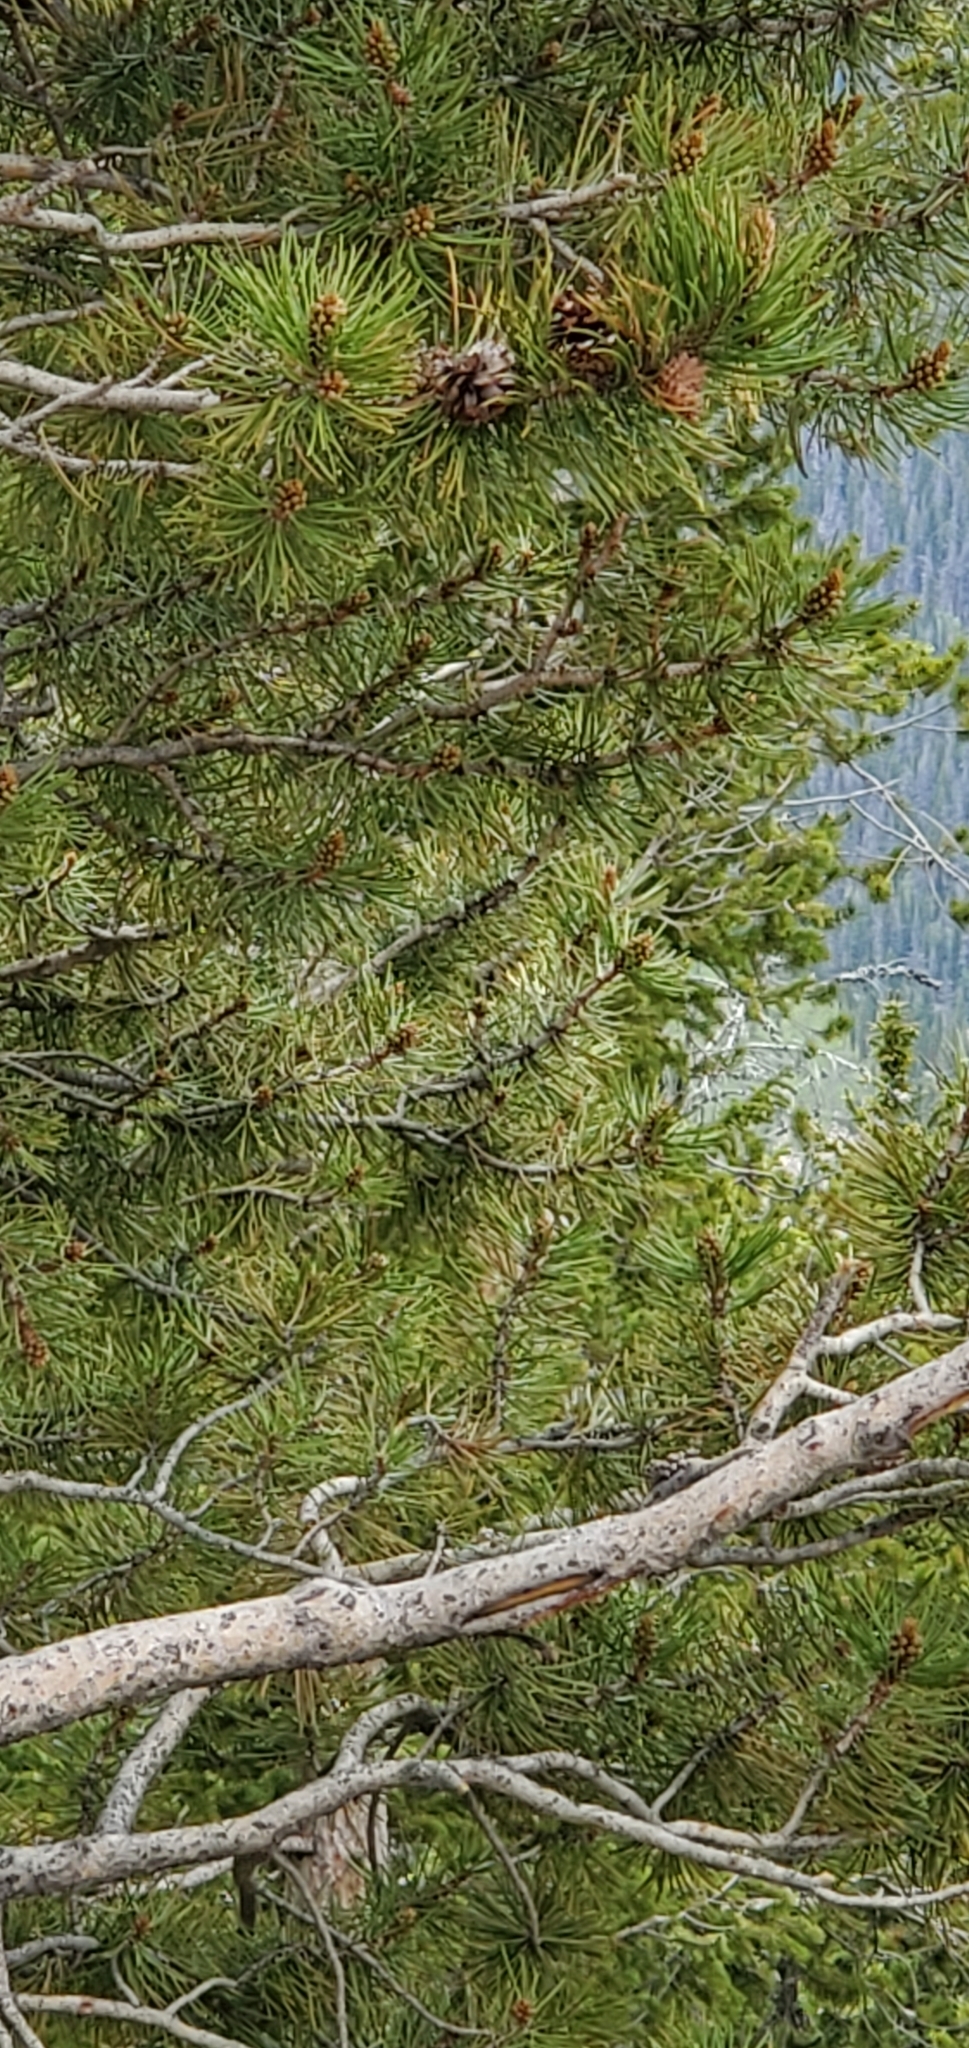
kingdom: Plantae
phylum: Tracheophyta
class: Pinopsida
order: Pinales
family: Pinaceae
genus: Pinus
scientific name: Pinus contorta
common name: Lodgepole pine
